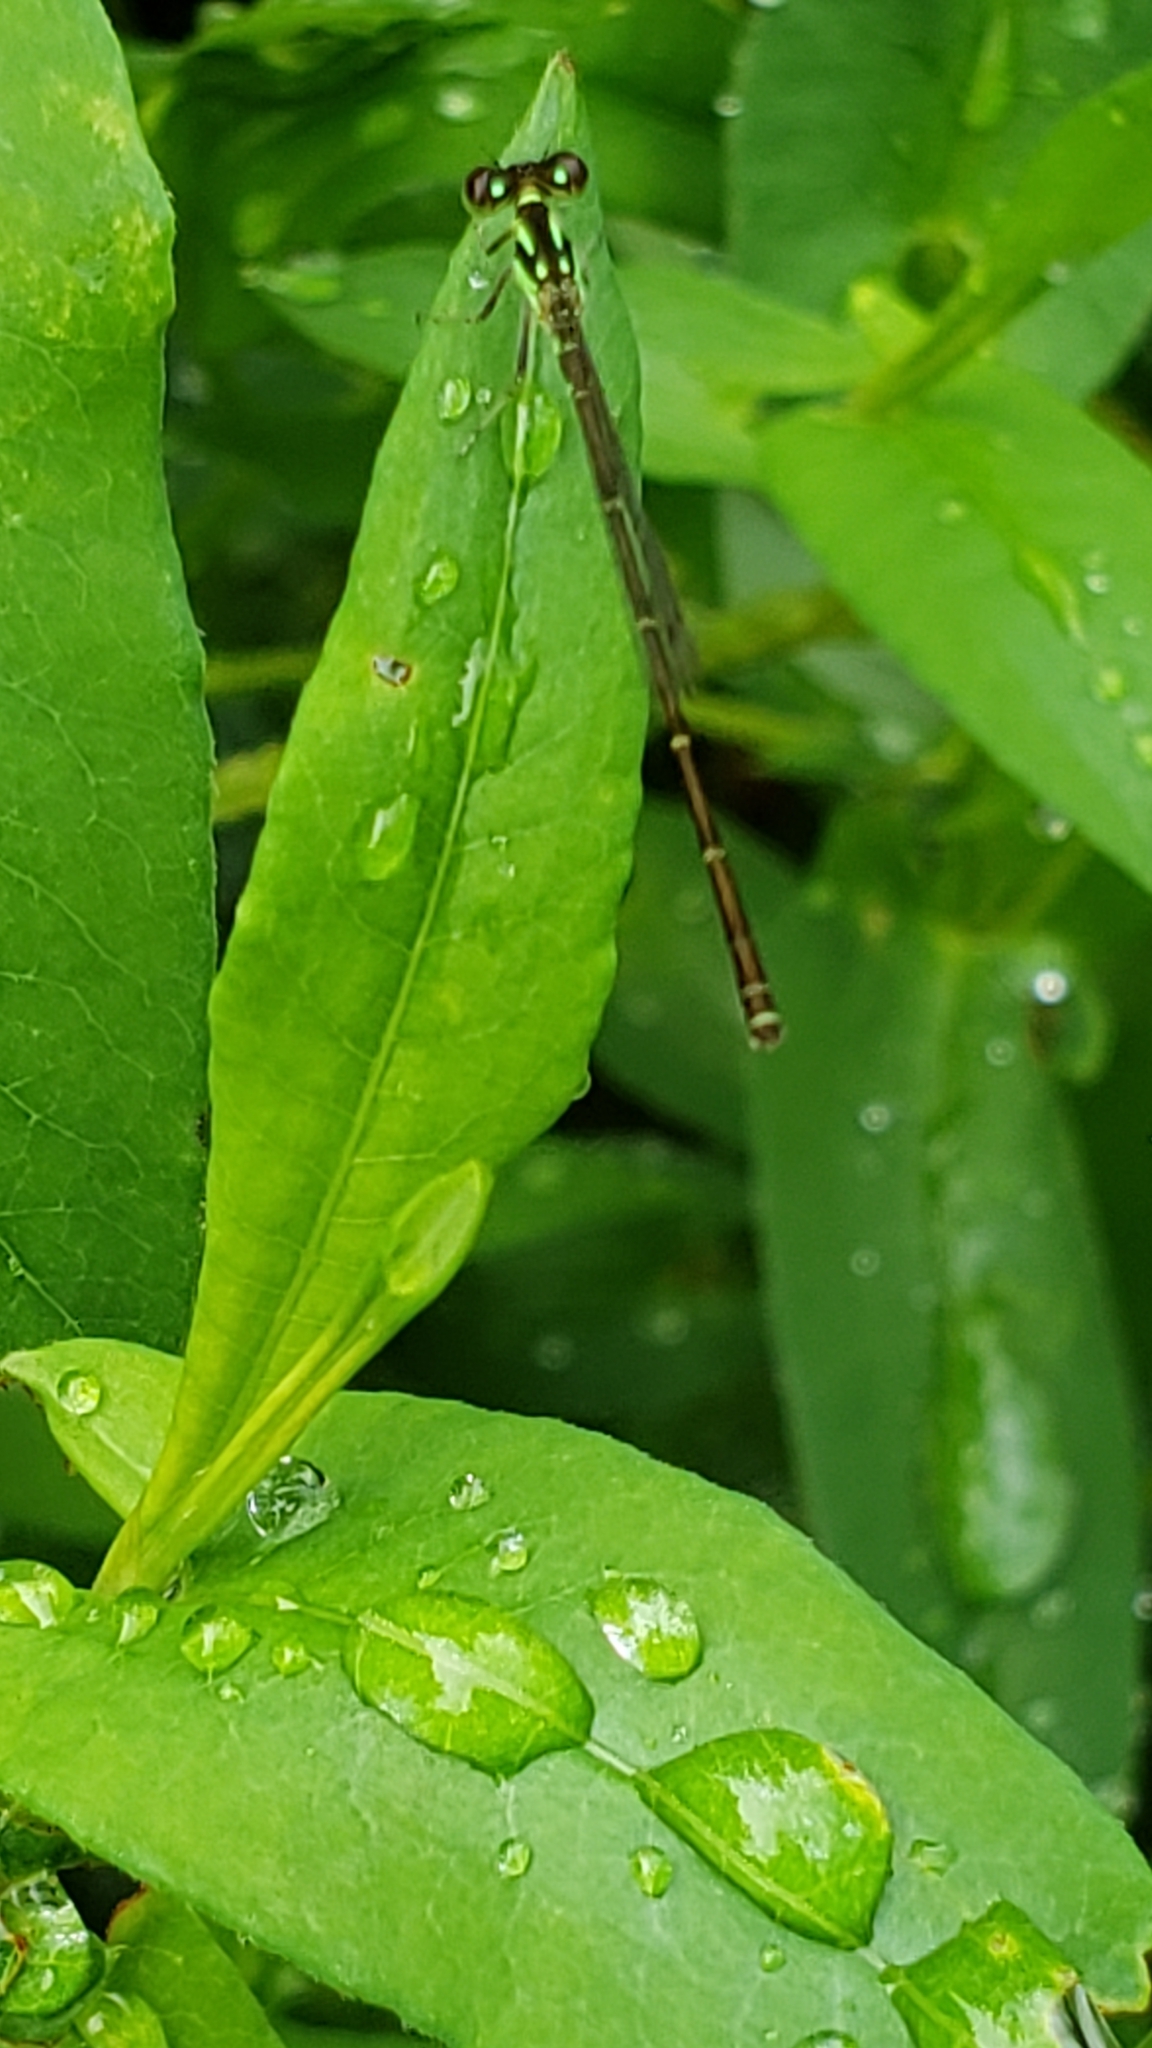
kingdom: Animalia
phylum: Arthropoda
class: Insecta
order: Odonata
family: Coenagrionidae
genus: Ischnura
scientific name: Ischnura posita
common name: Fragile forktail
